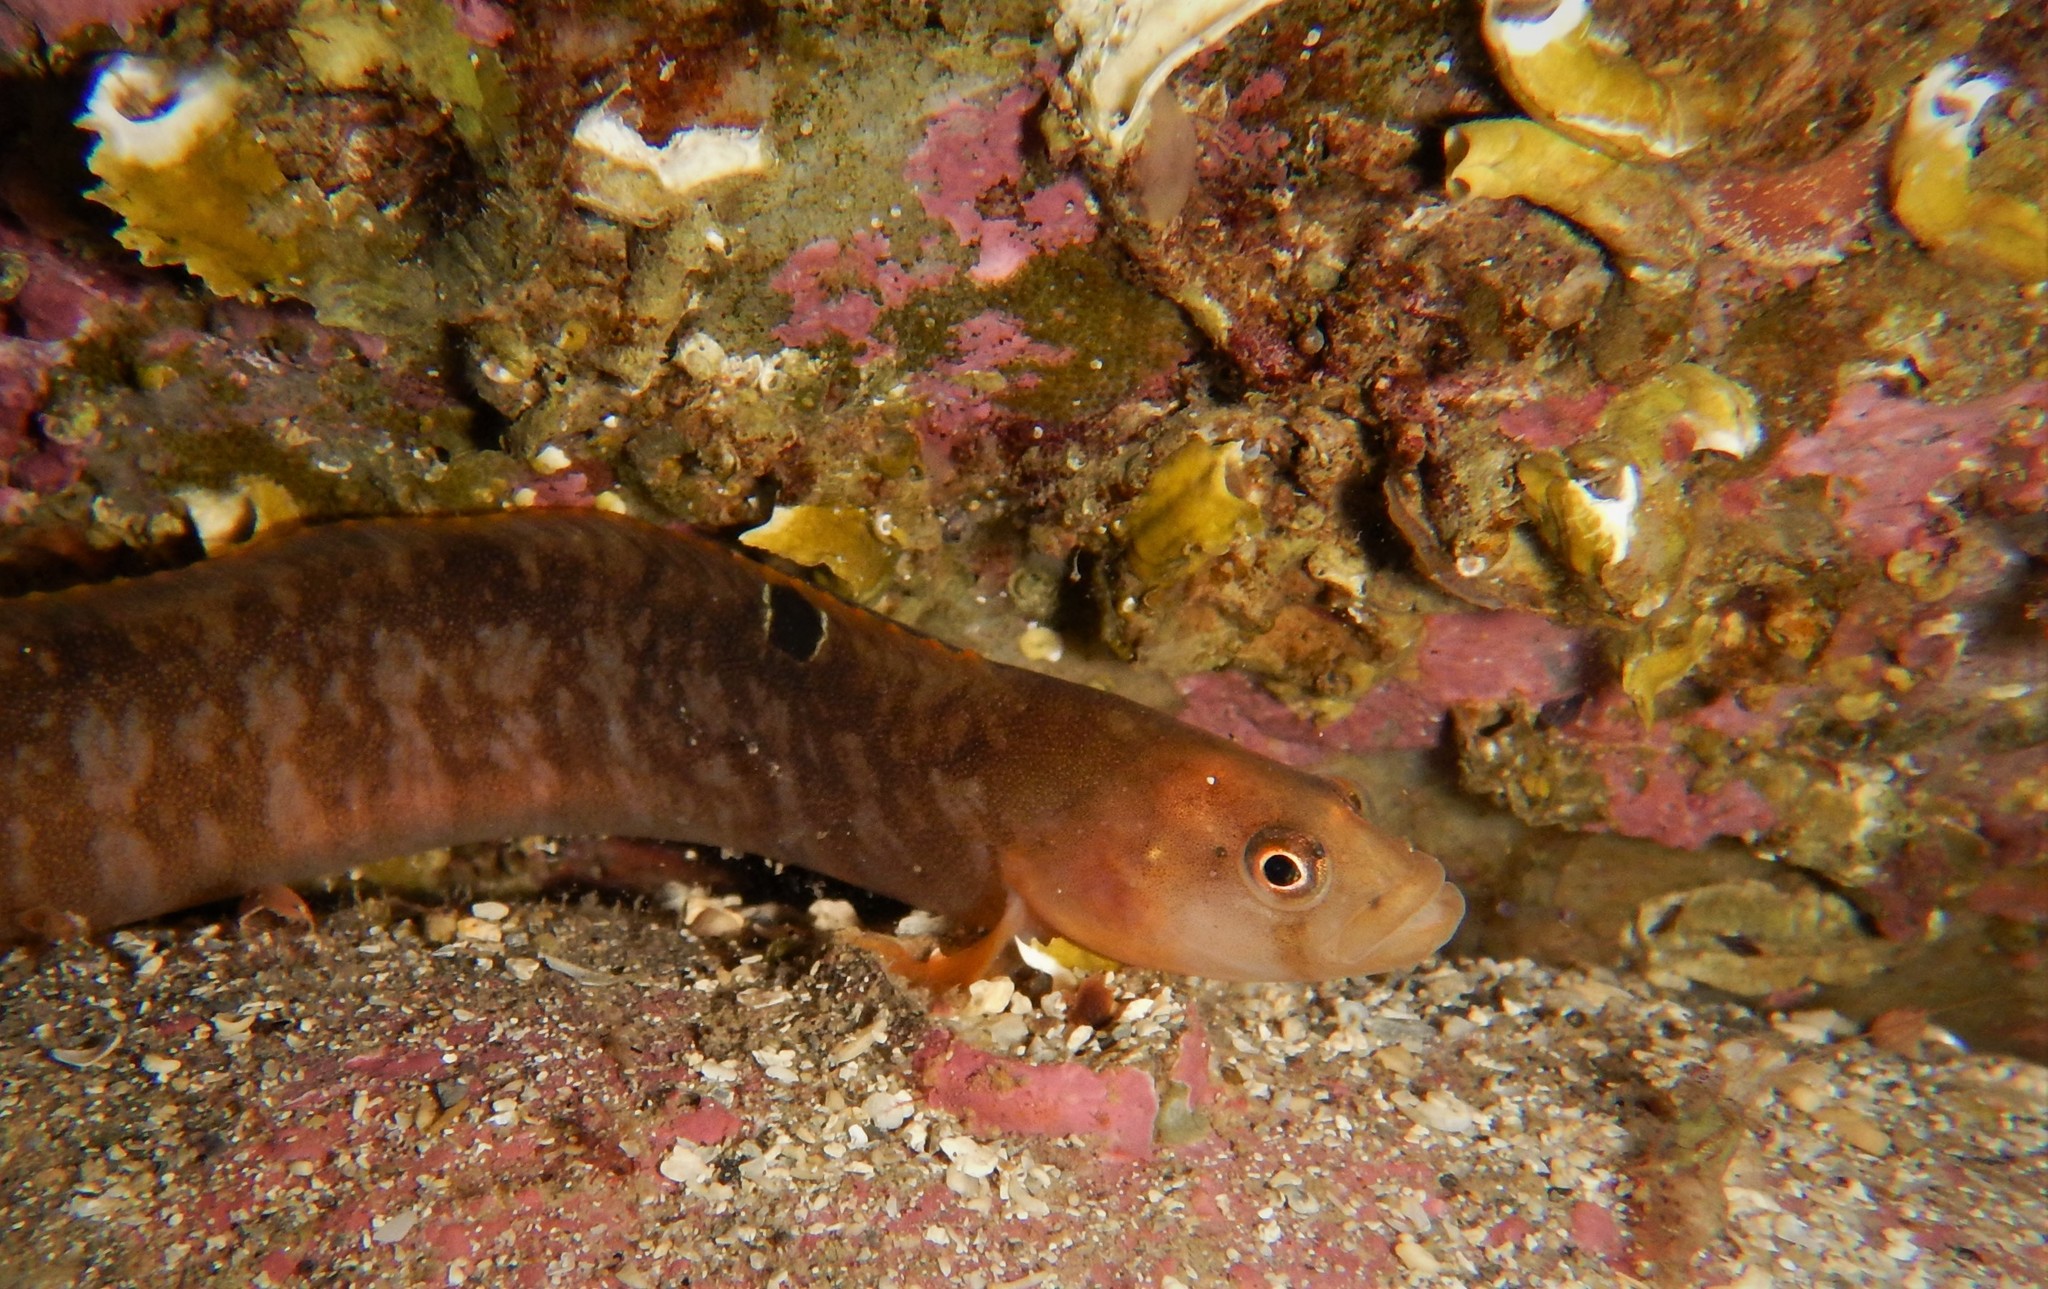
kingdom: Animalia
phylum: Chordata
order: Perciformes
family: Pholidae
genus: Pholis
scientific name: Pholis gunnellus
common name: Butterfish
